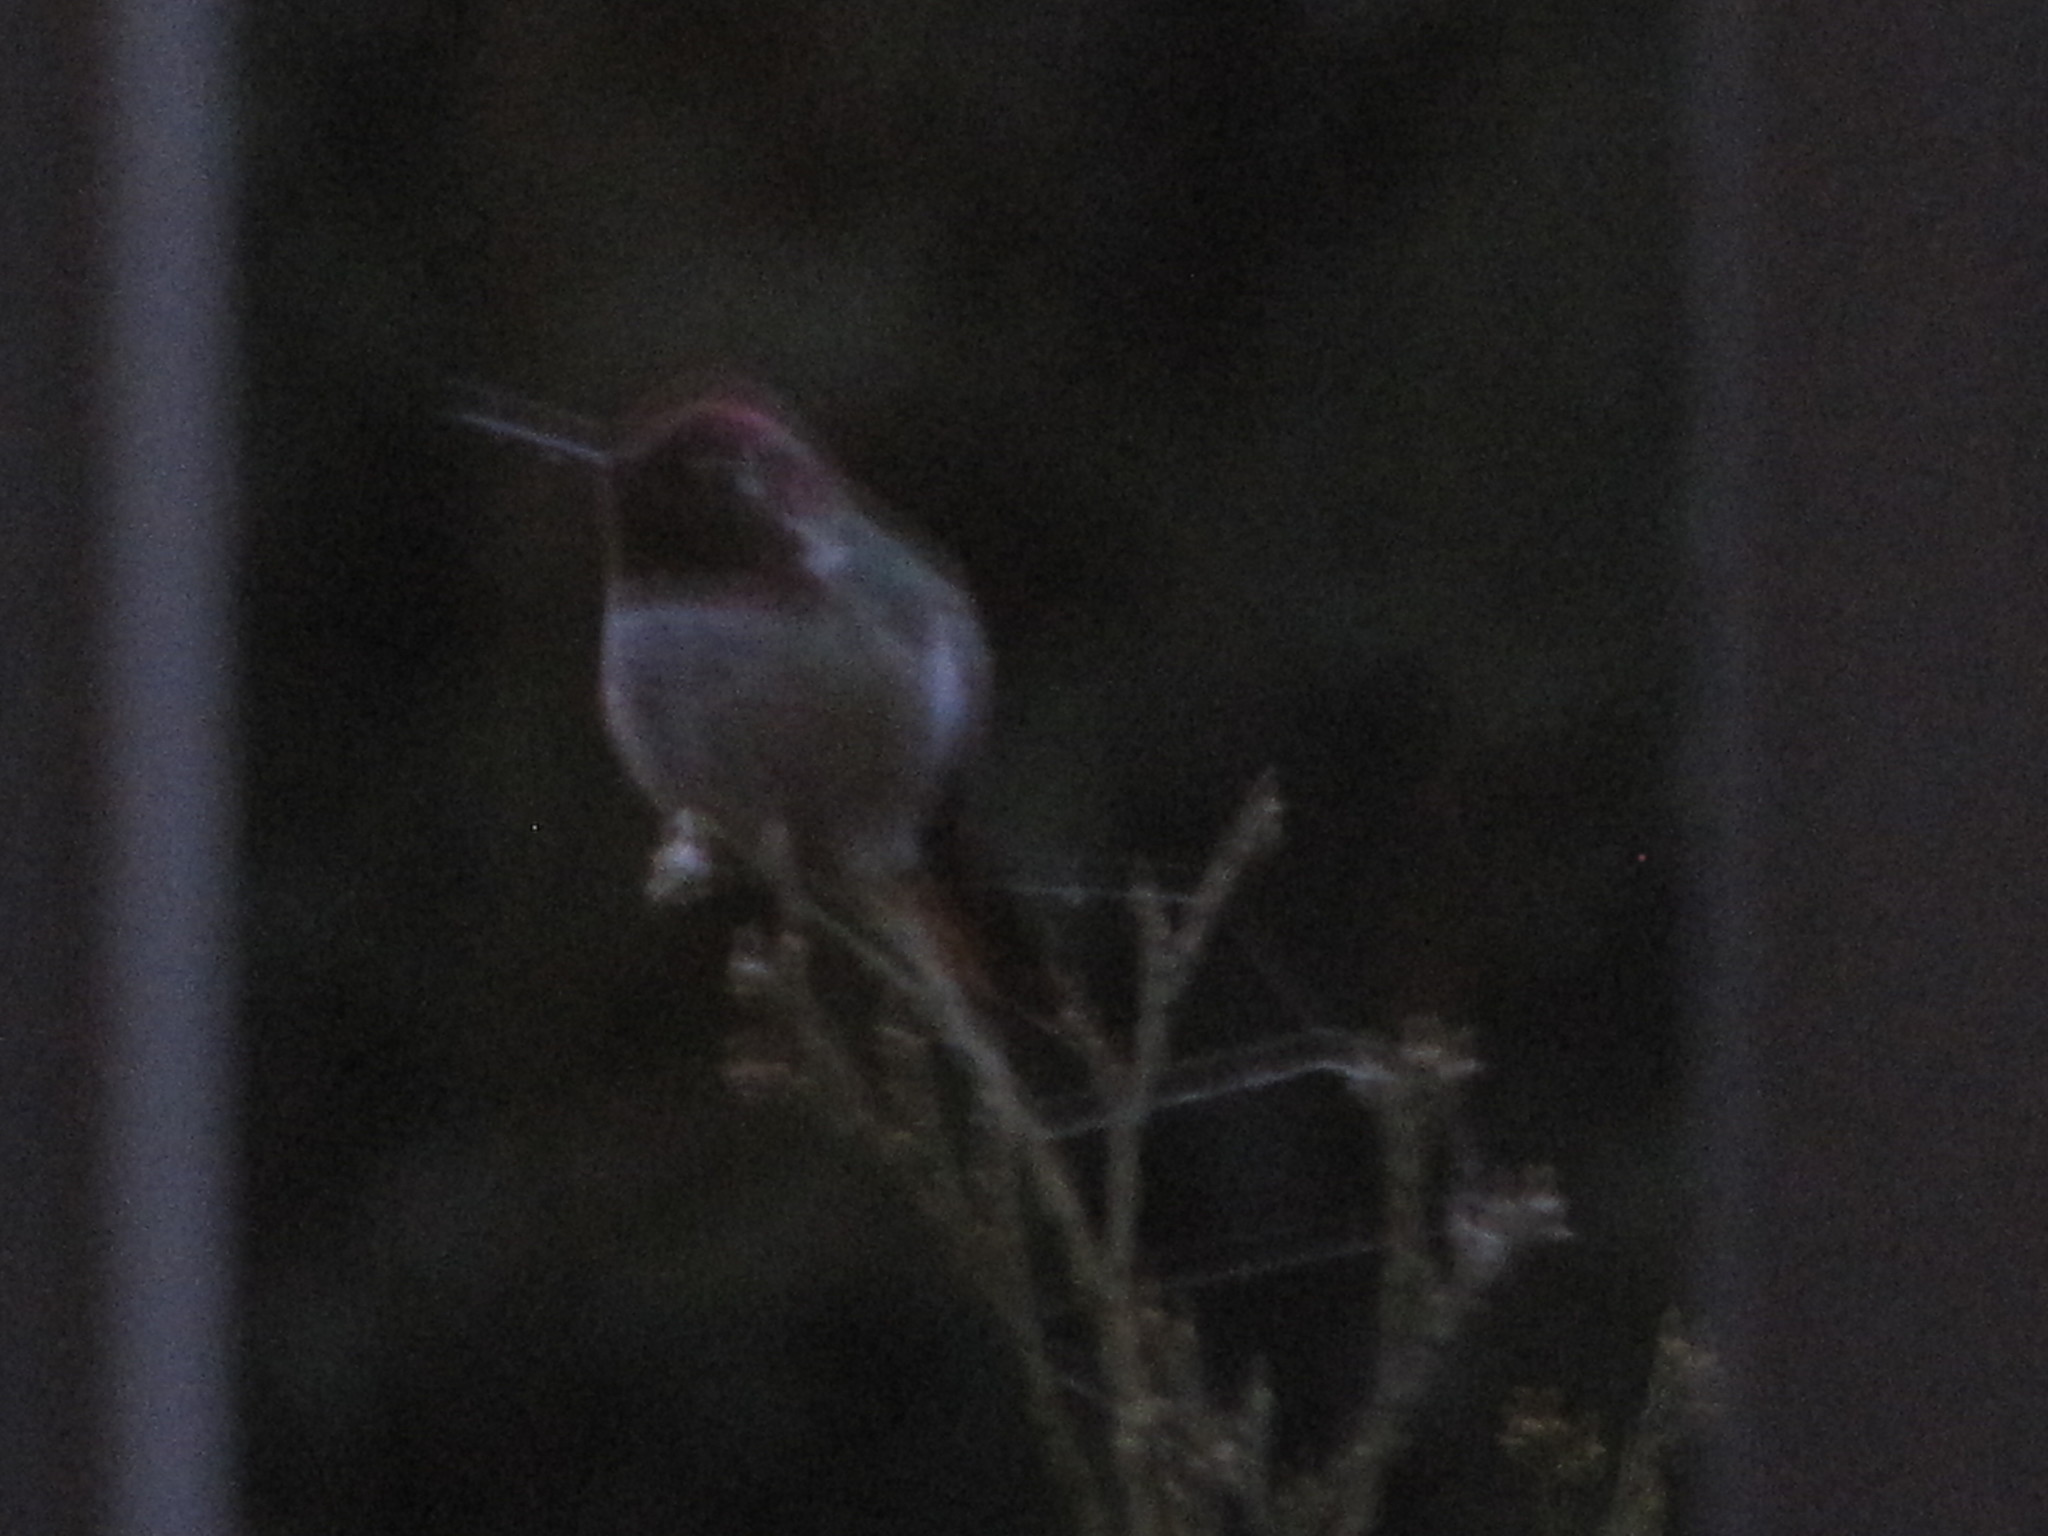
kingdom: Animalia
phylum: Chordata
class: Aves
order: Apodiformes
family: Trochilidae
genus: Calypte
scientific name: Calypte anna
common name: Anna's hummingbird
